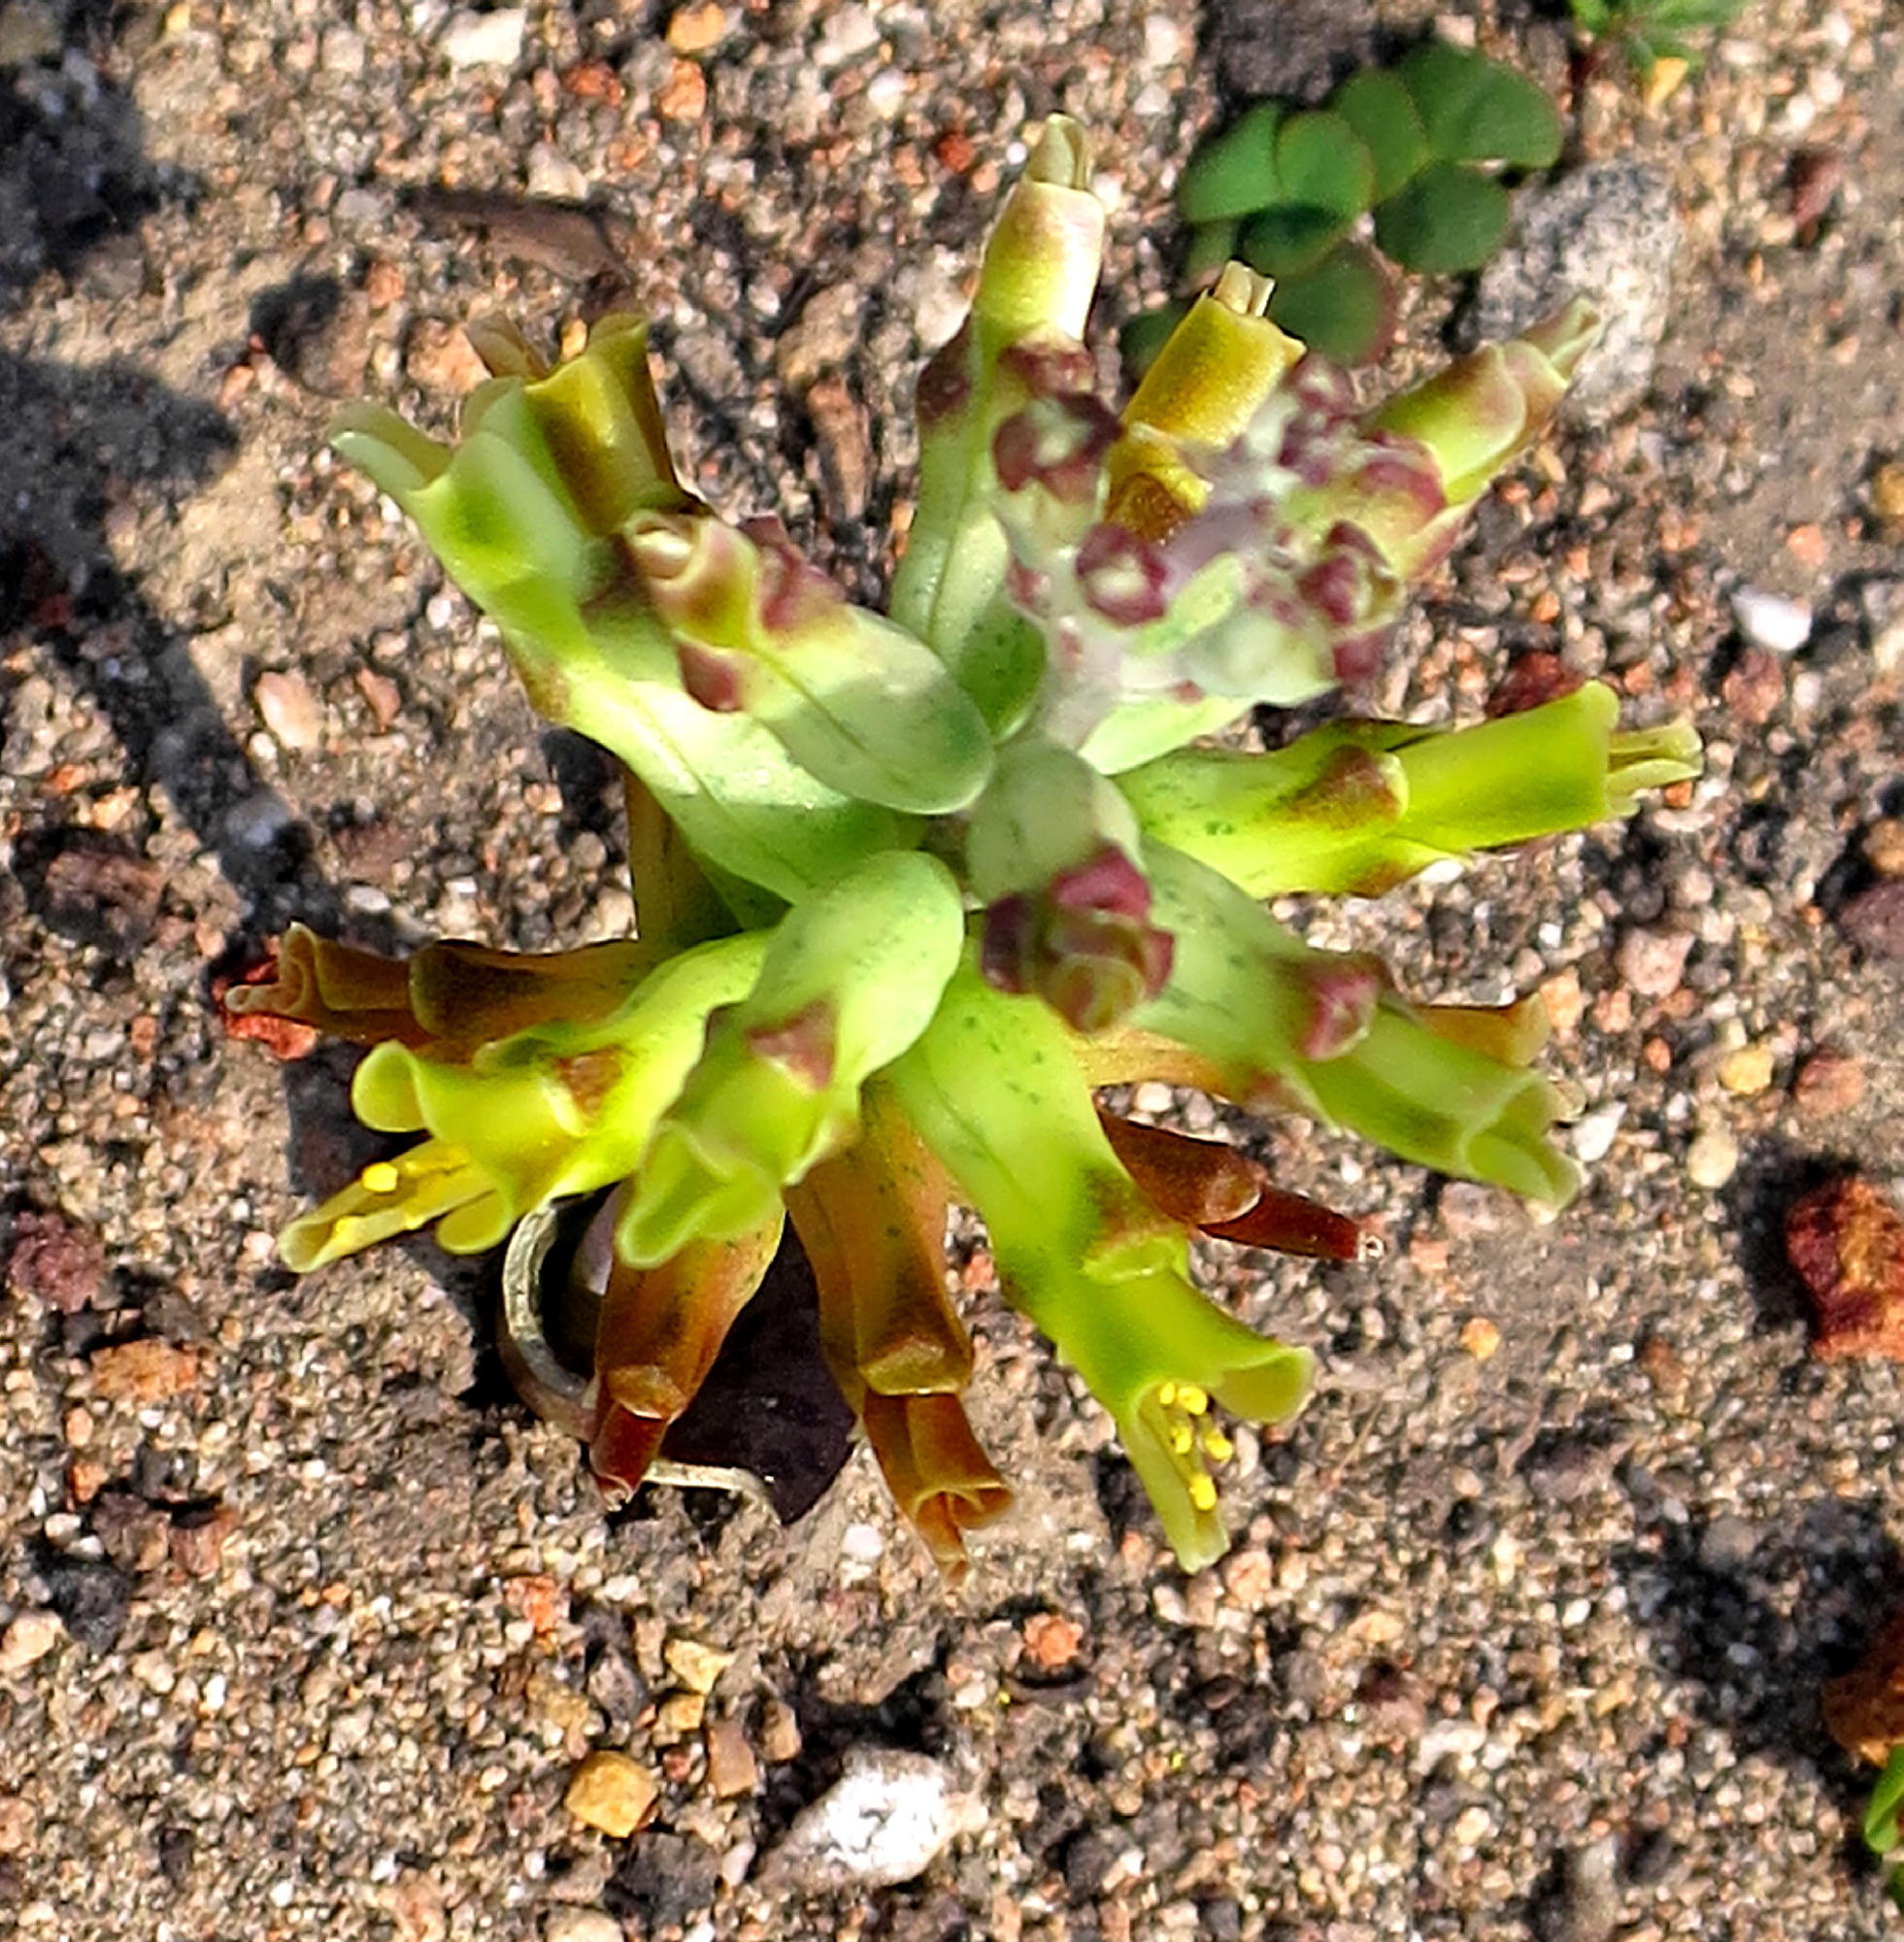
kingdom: Plantae
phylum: Tracheophyta
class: Liliopsida
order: Asparagales
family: Asparagaceae
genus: Lachenalia
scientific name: Lachenalia orchioides
